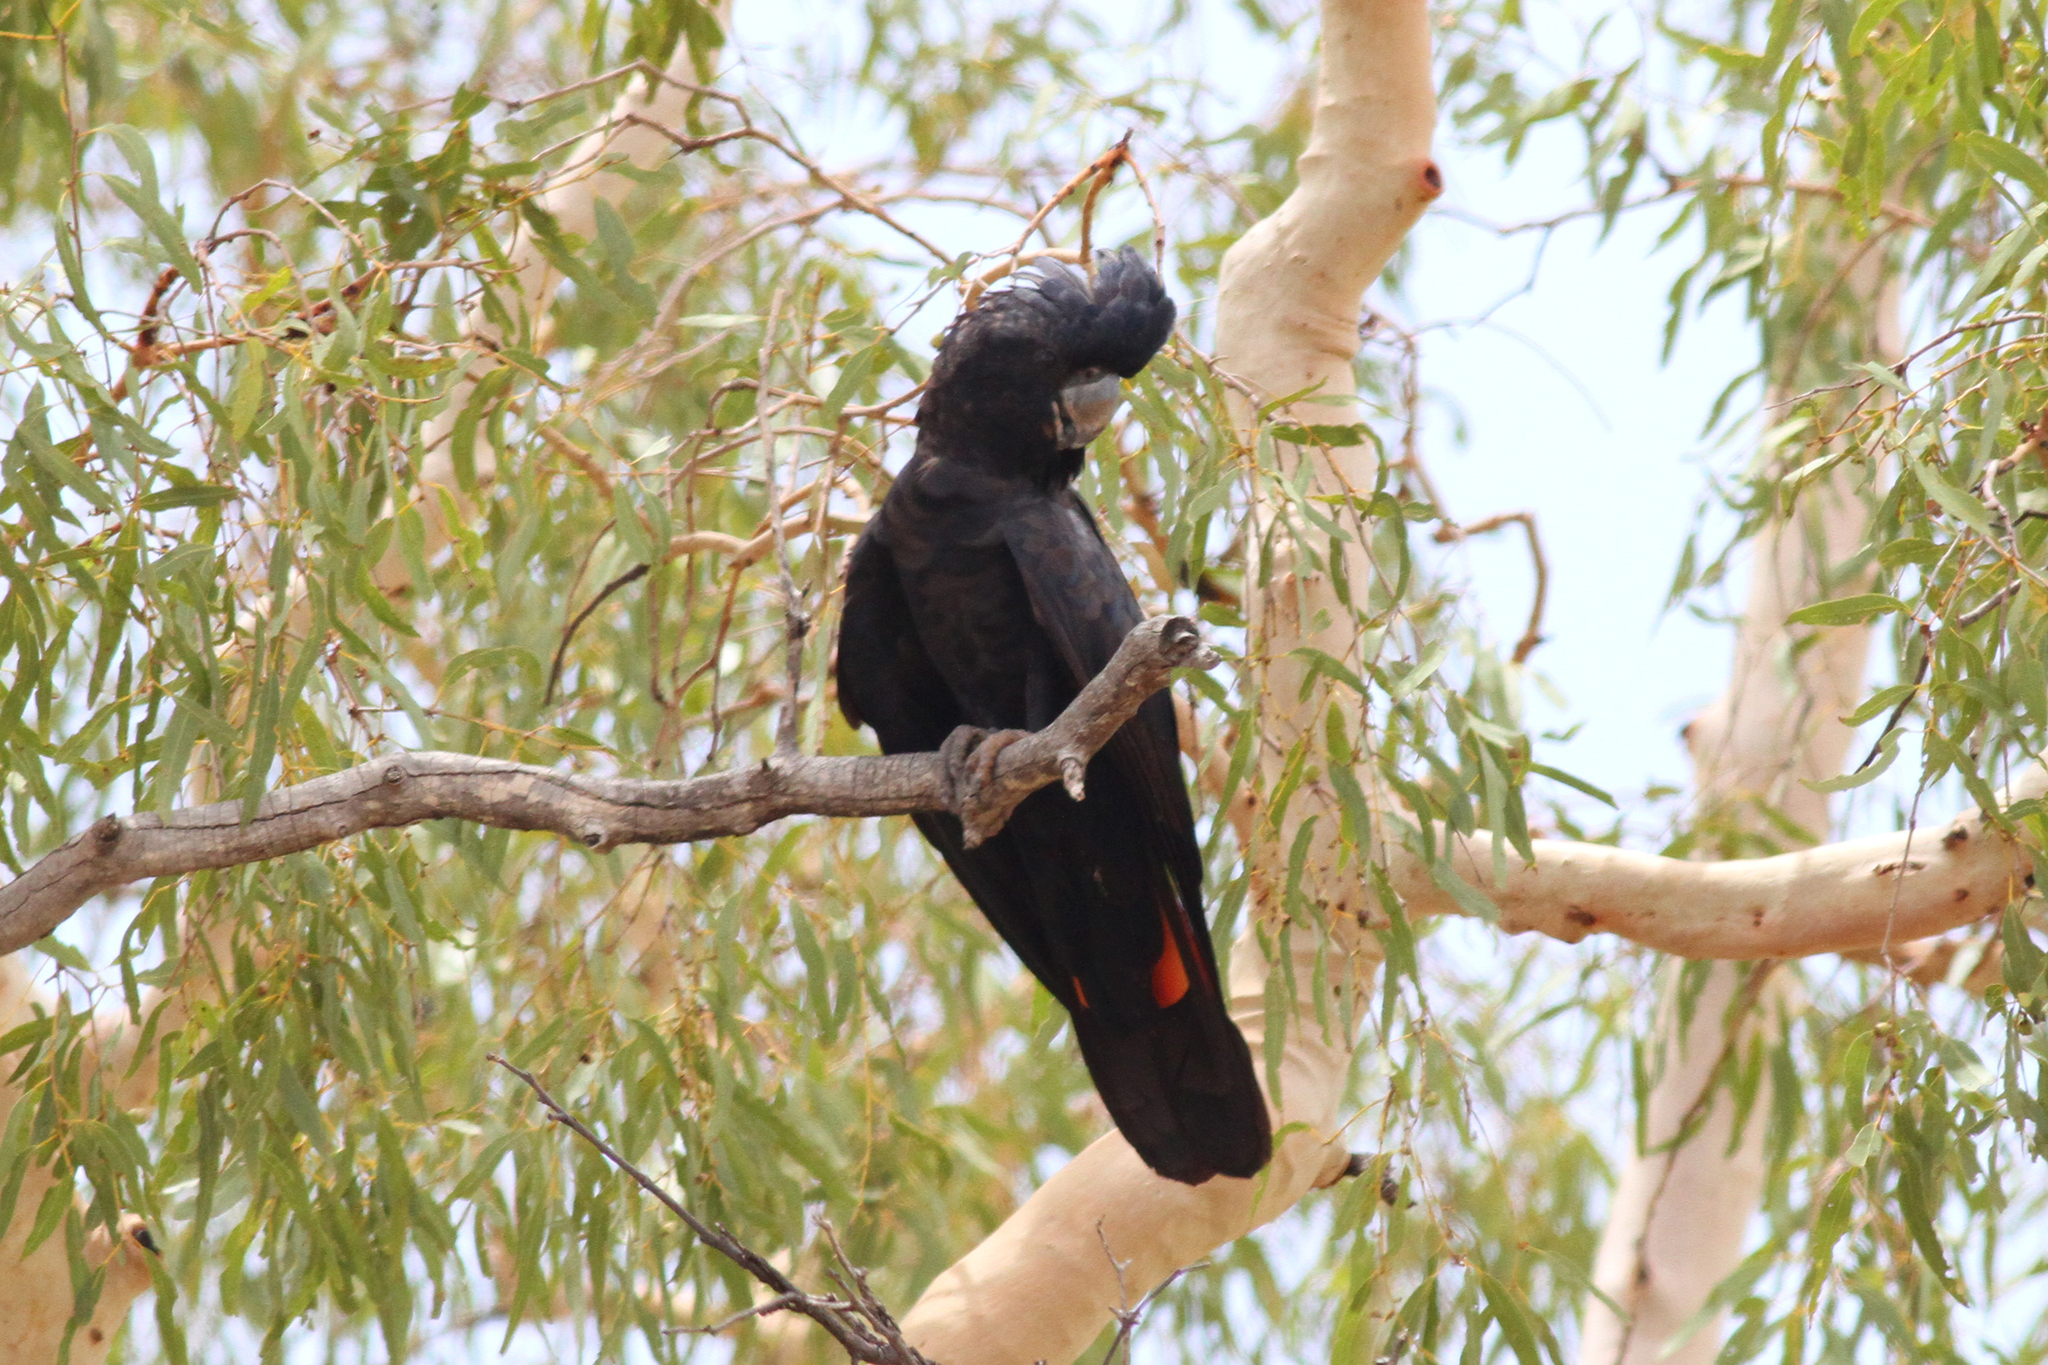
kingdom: Animalia
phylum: Chordata
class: Aves
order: Psittaciformes
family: Psittacidae
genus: Calyptorhynchus
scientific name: Calyptorhynchus banksii
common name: Red-tailed black cockatoo
